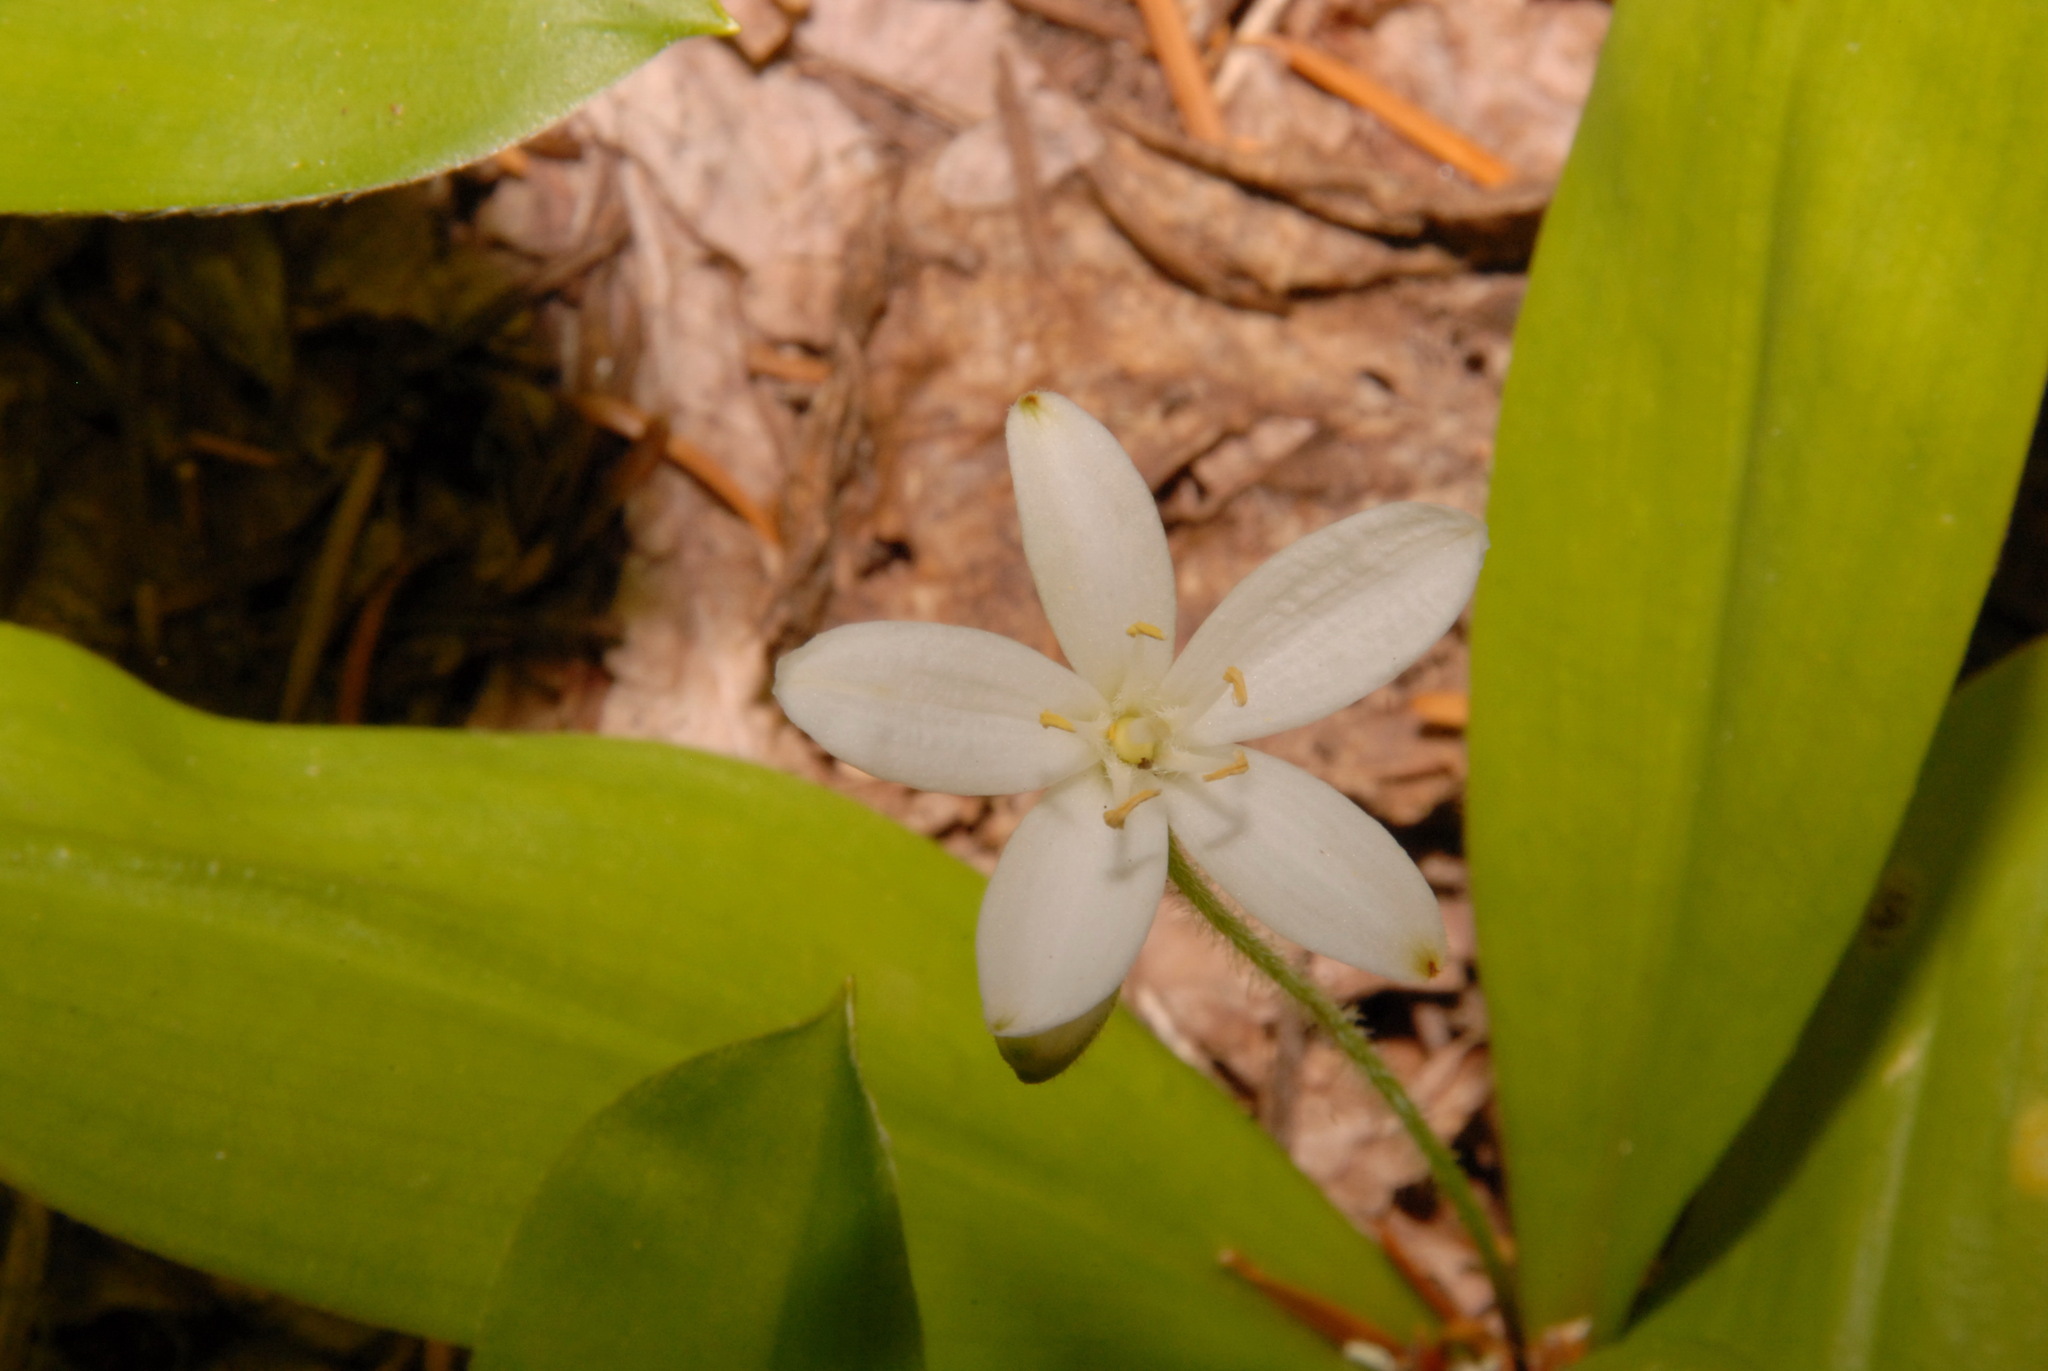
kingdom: Plantae
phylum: Tracheophyta
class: Liliopsida
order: Liliales
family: Liliaceae
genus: Clintonia
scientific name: Clintonia uniflora
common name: Queen's cup
